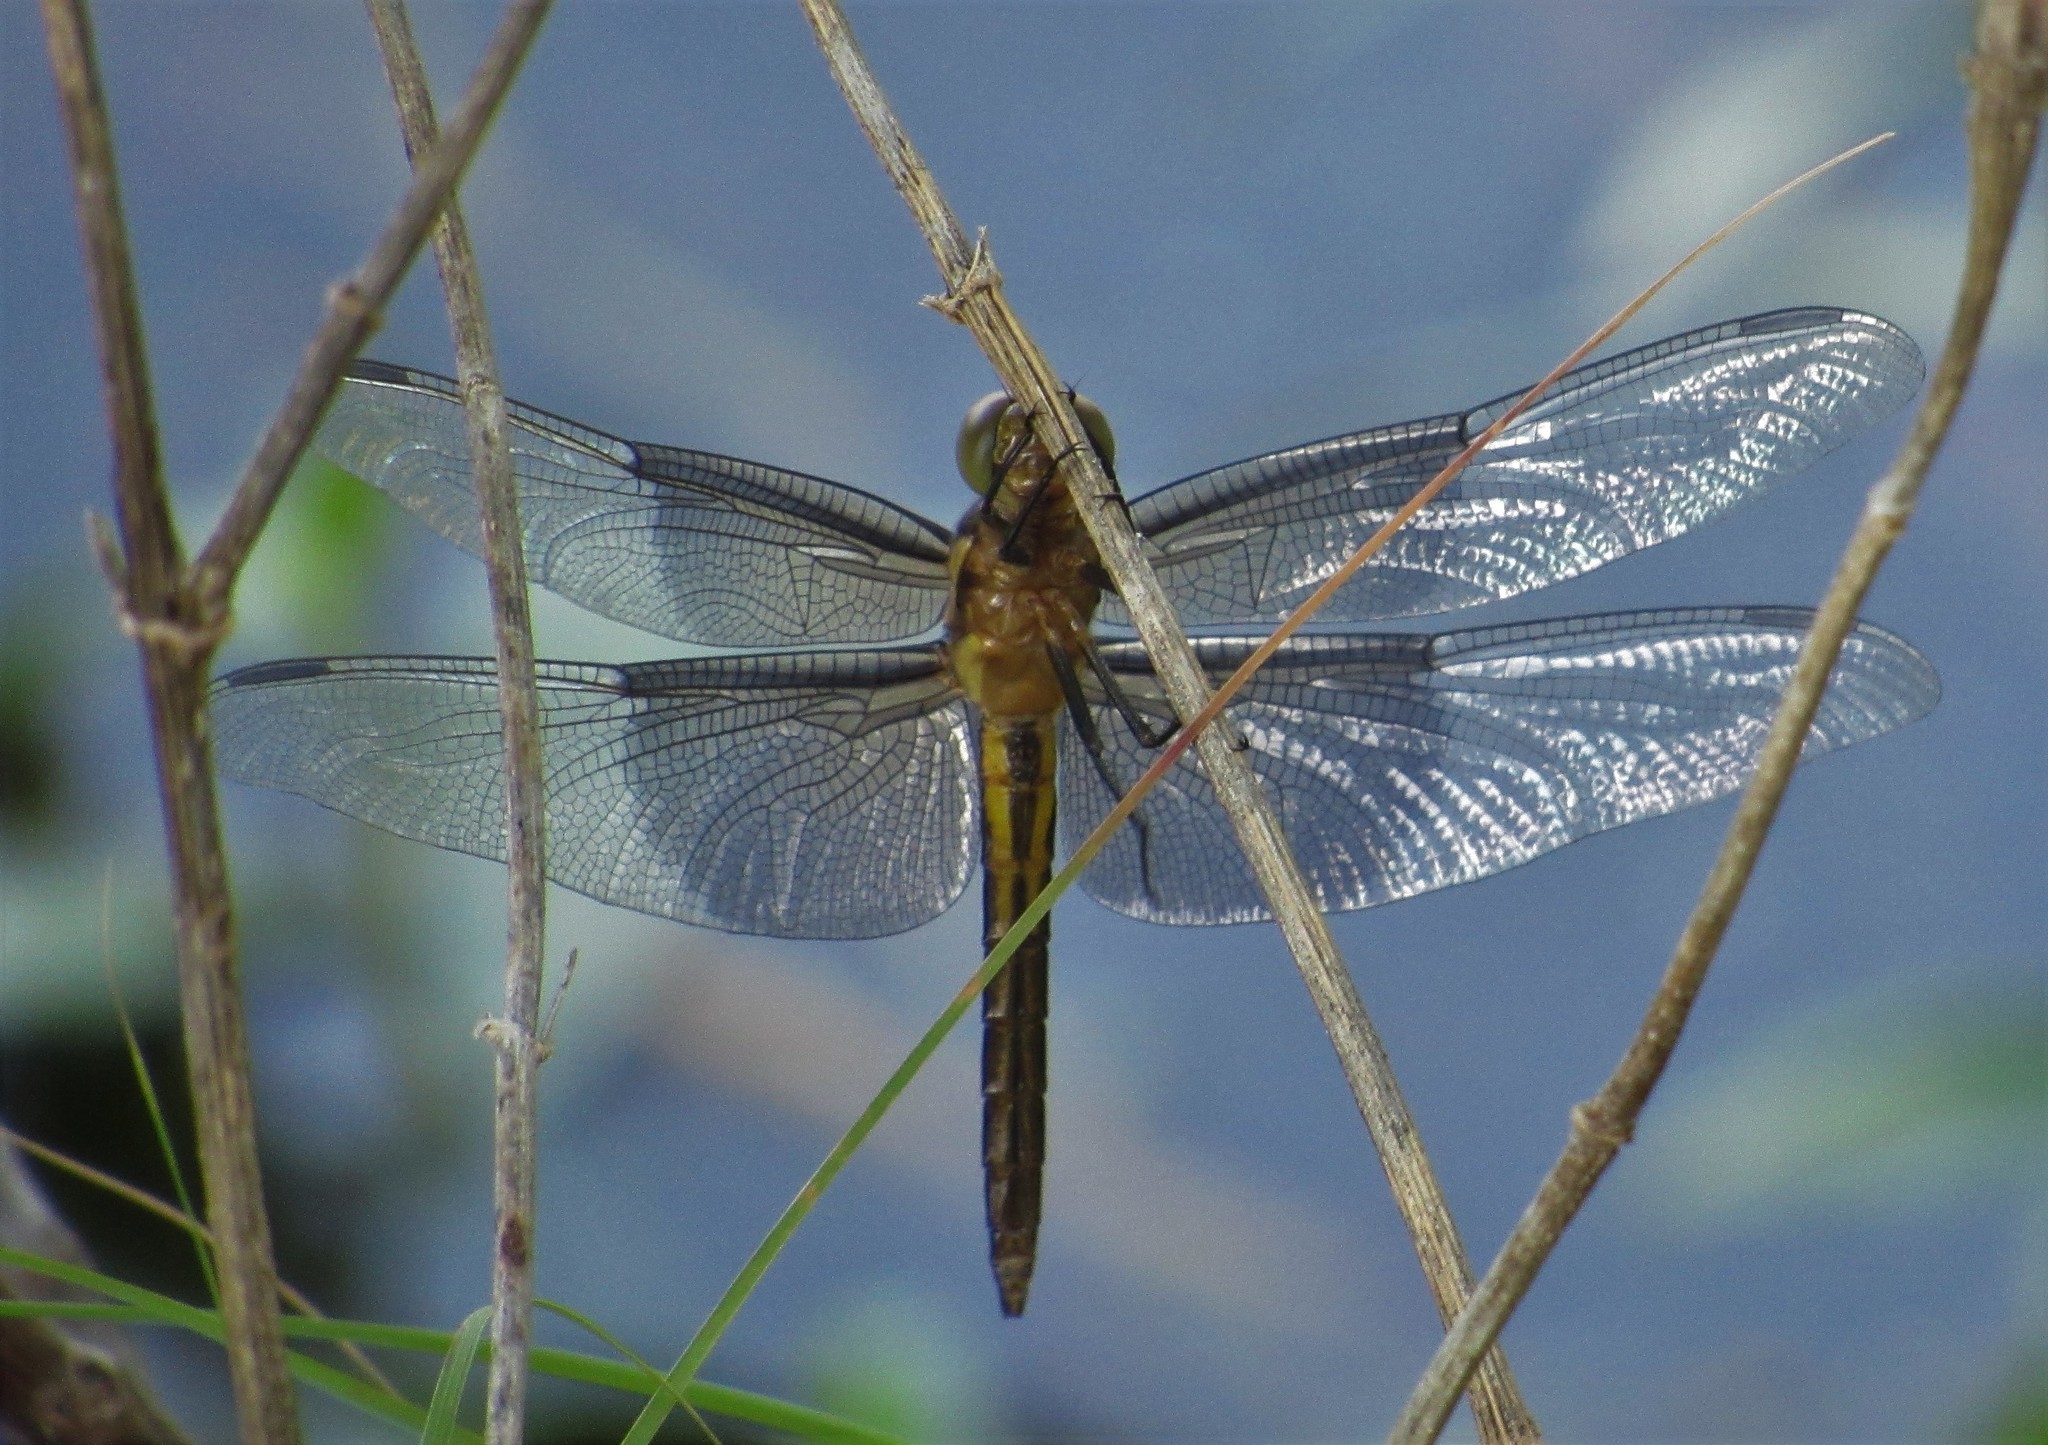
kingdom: Animalia
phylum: Arthropoda
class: Insecta
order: Odonata
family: Libellulidae
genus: Libellula
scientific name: Libellula luctuosa
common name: Widow skimmer
